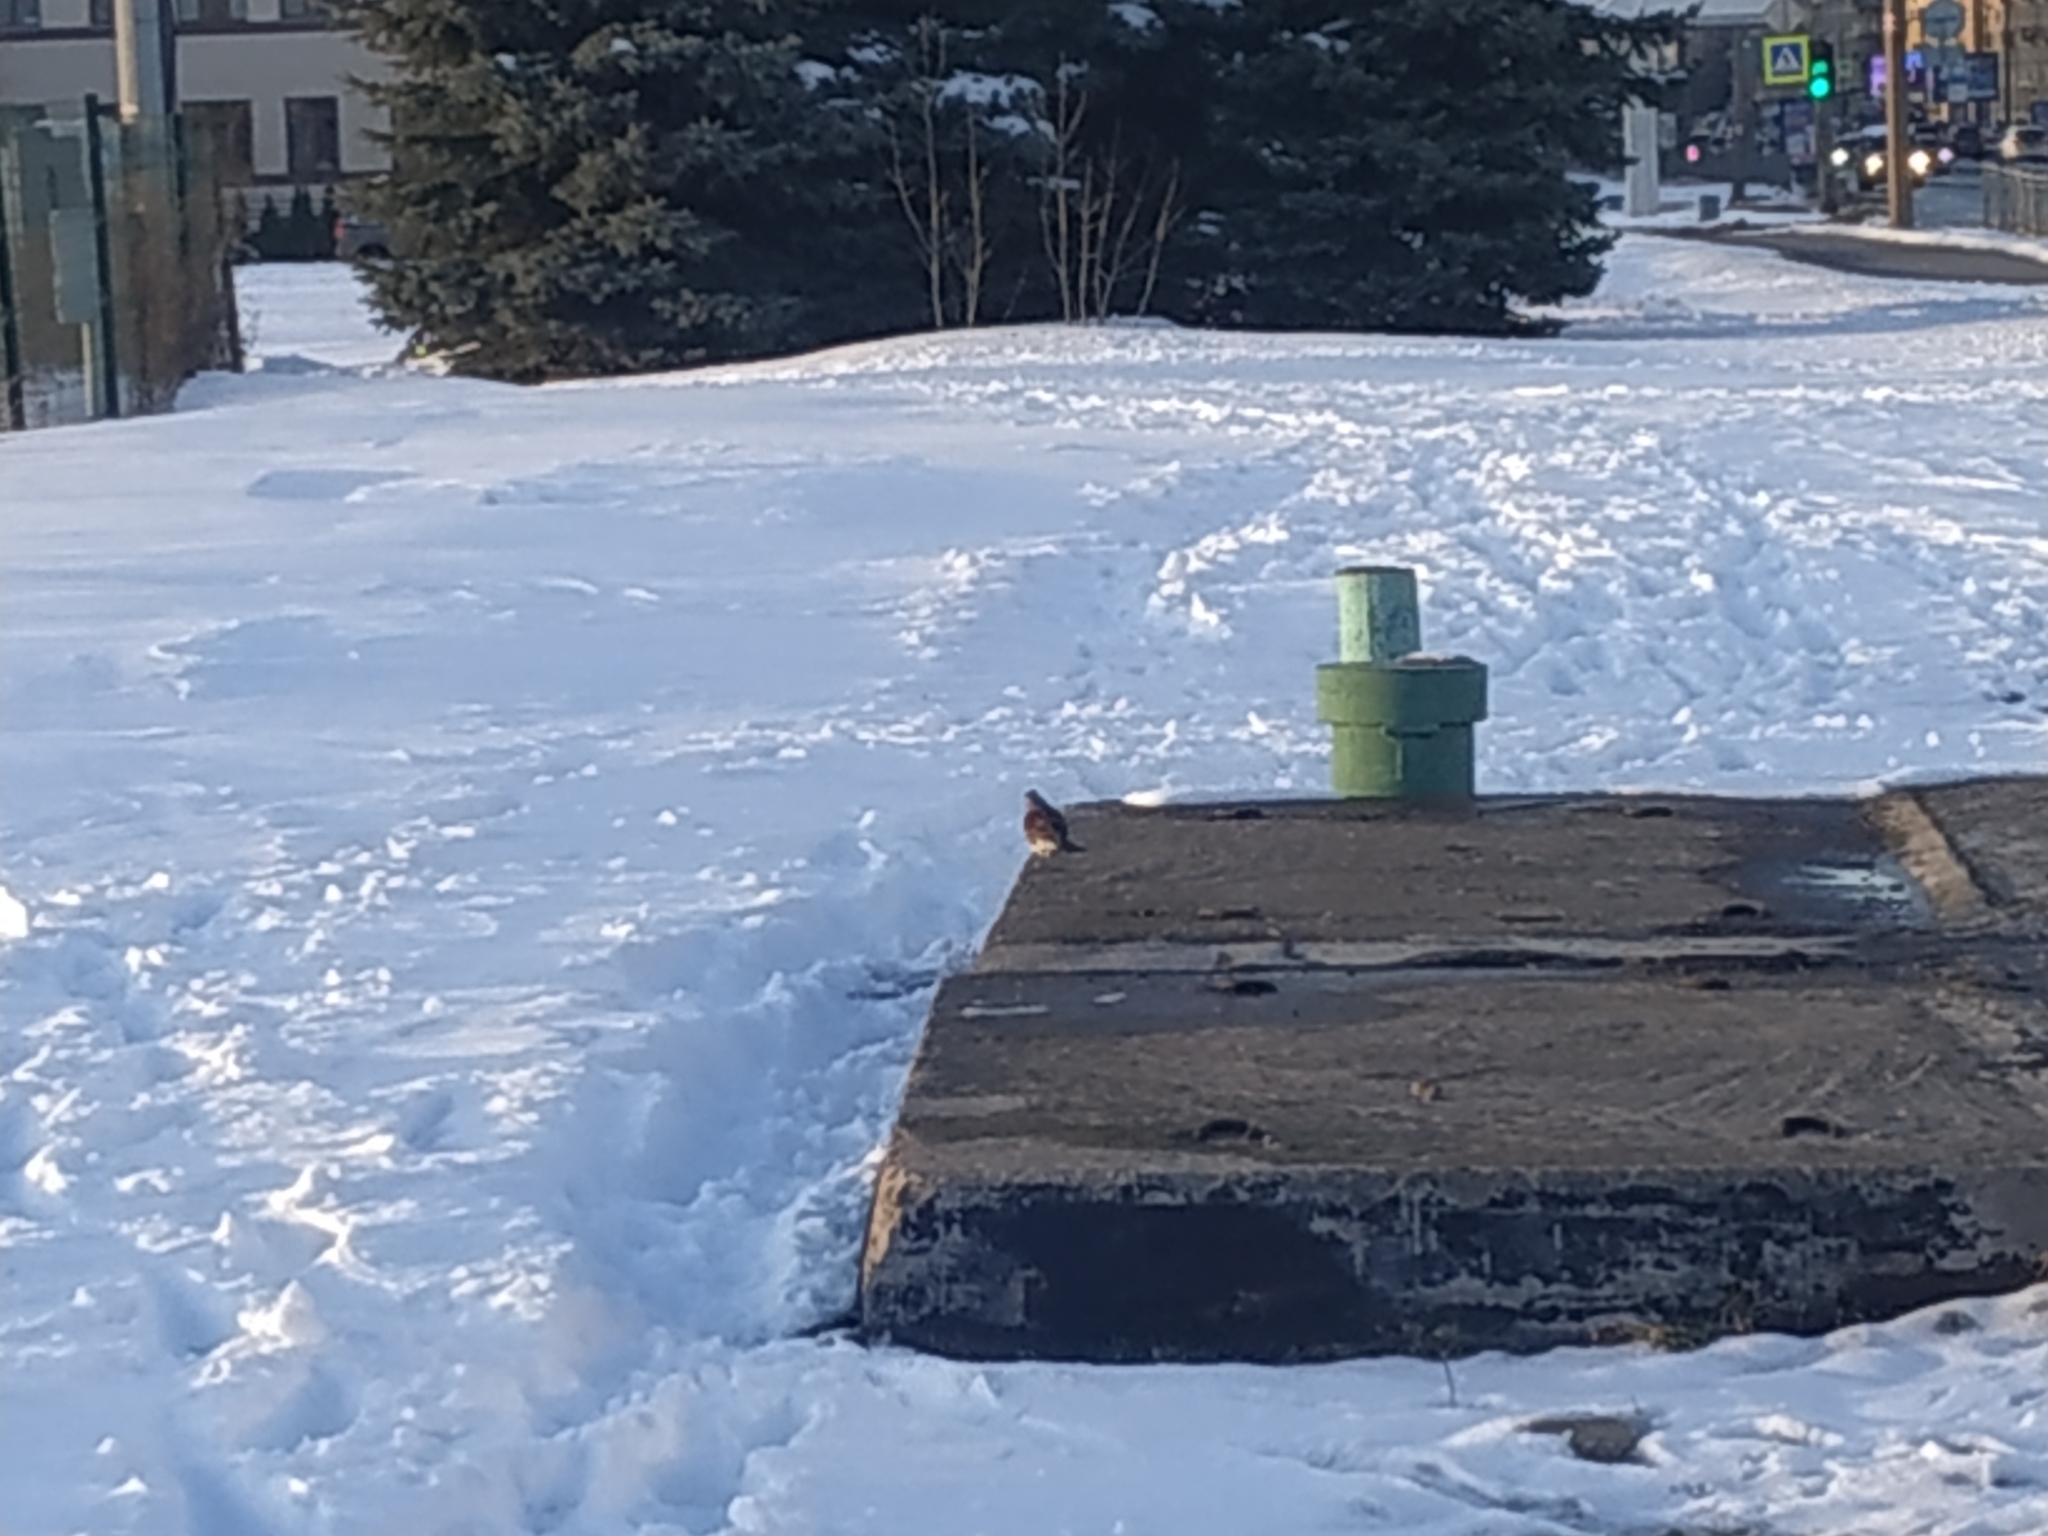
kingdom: Animalia
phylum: Chordata
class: Aves
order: Passeriformes
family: Turdidae
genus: Turdus
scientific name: Turdus pilaris
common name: Fieldfare
